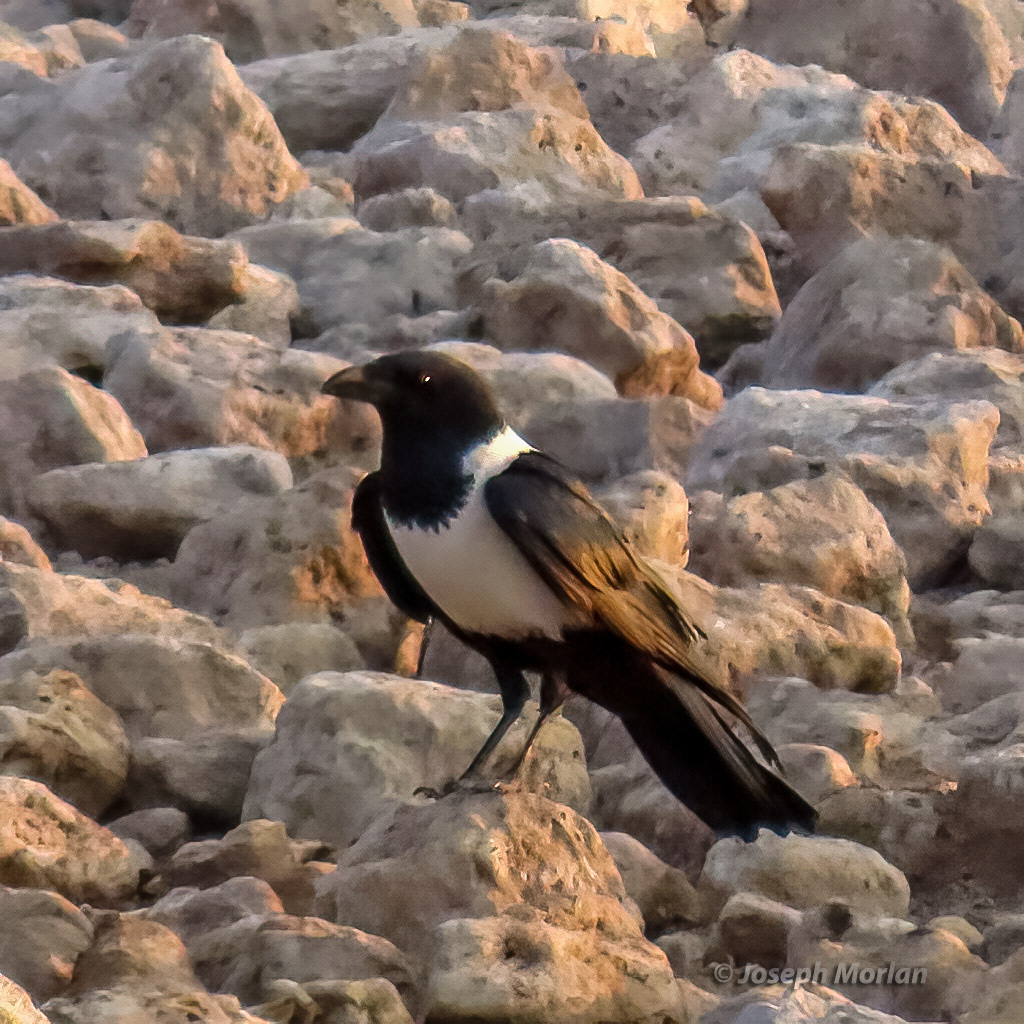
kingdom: Animalia
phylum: Chordata
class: Aves
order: Passeriformes
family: Corvidae
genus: Corvus
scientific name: Corvus albus
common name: Pied crow
